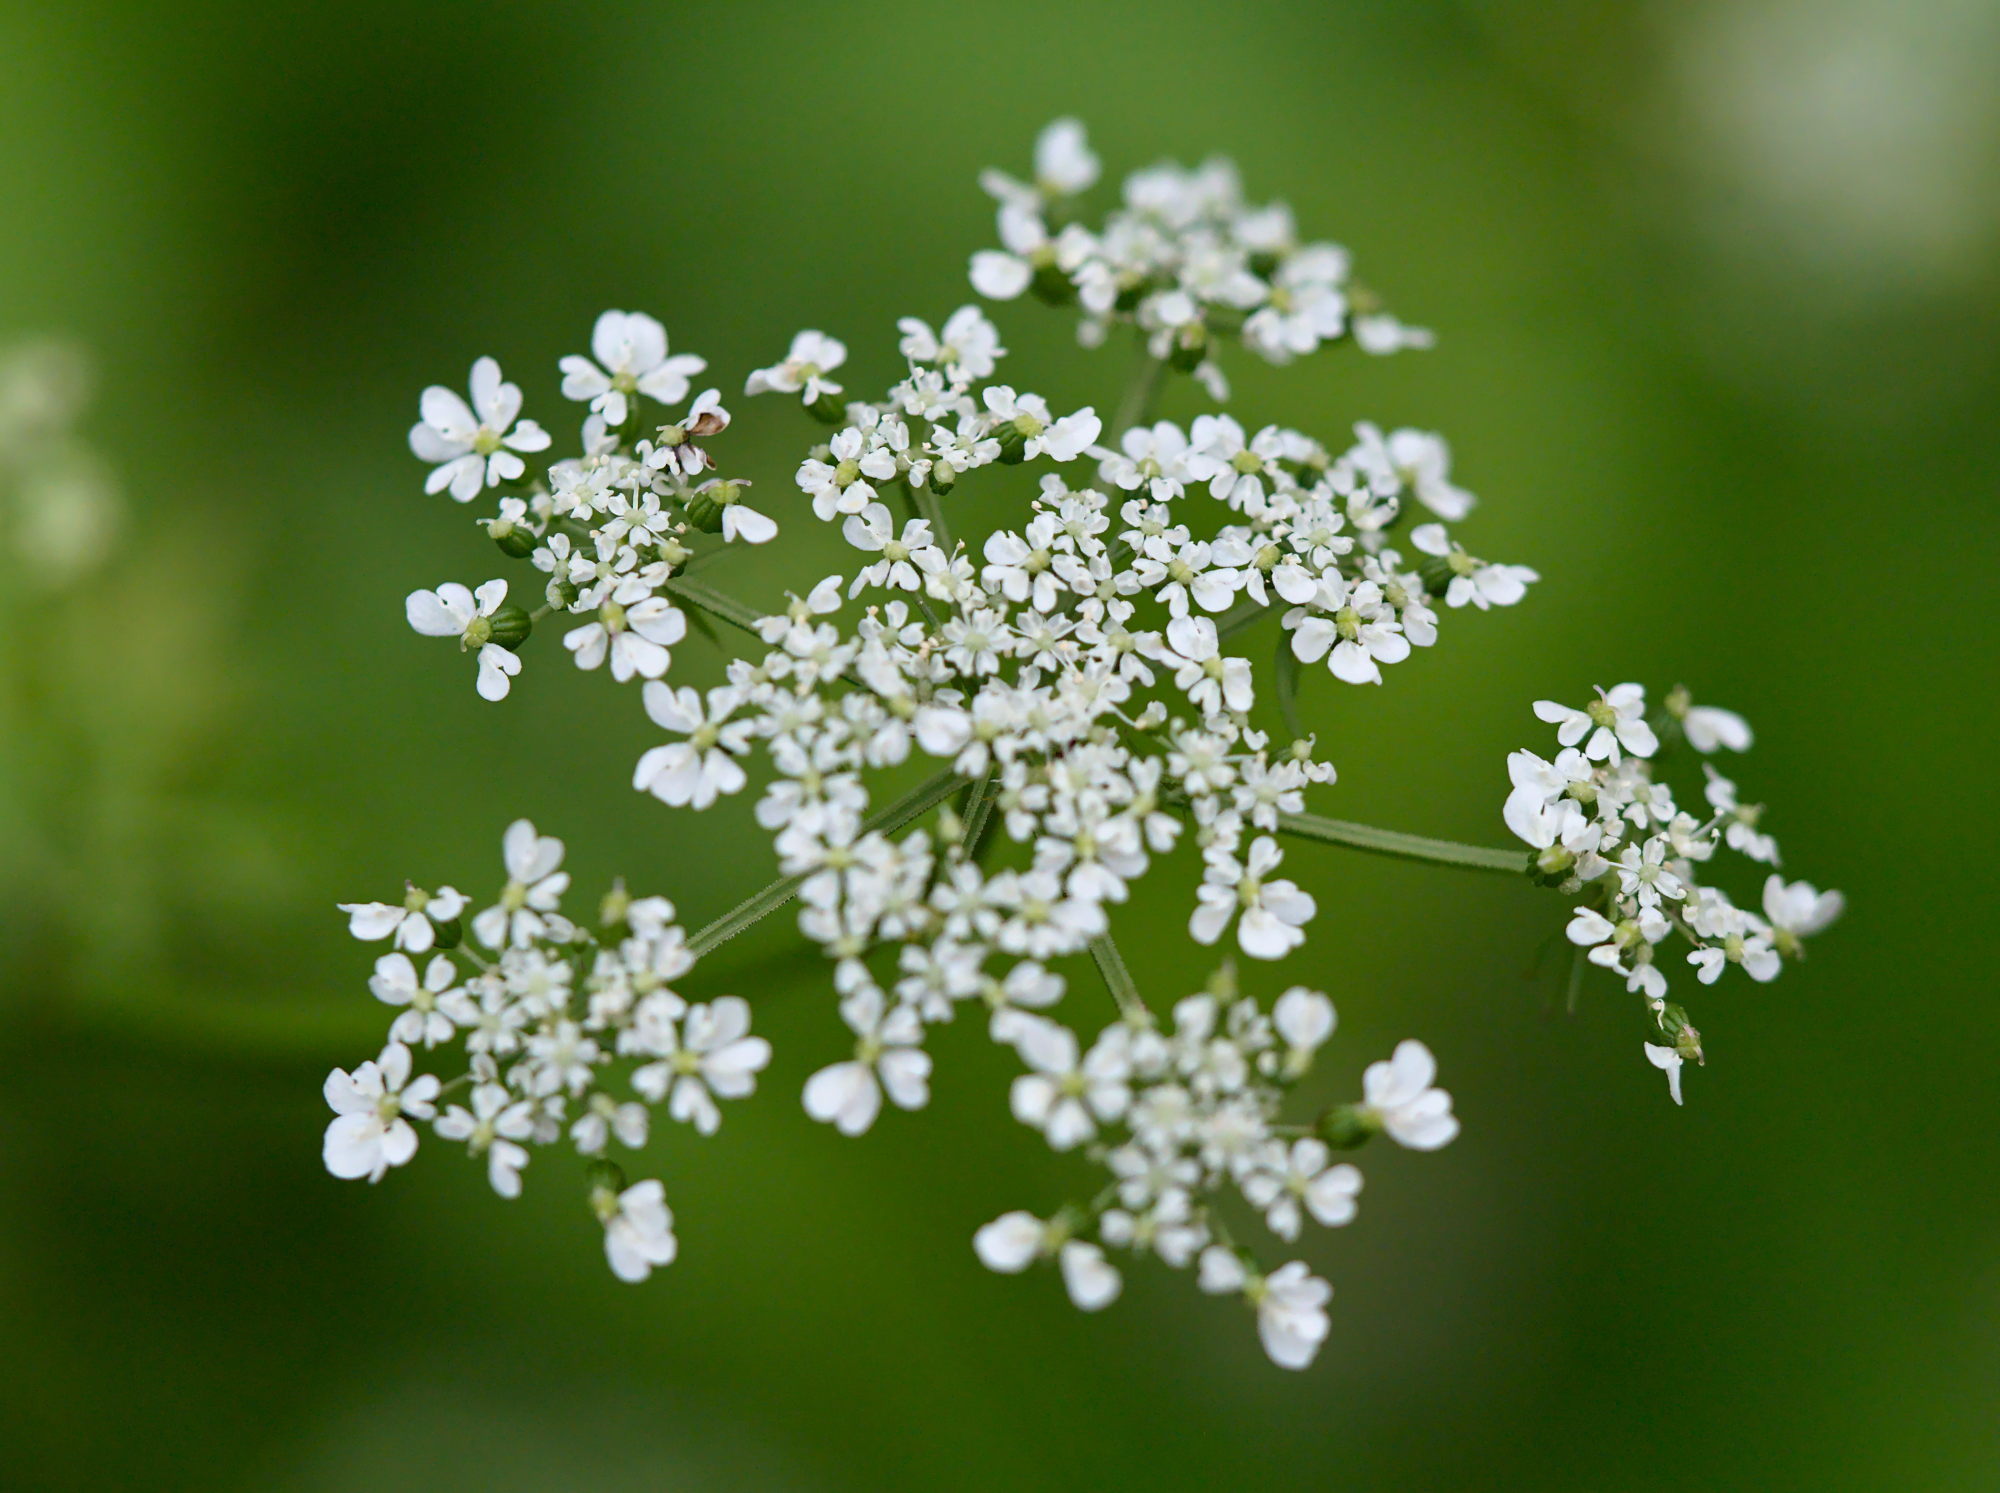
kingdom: Plantae
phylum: Tracheophyta
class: Magnoliopsida
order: Apiales
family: Apiaceae
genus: Aethusa
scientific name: Aethusa cynapium
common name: Fool's parsley
